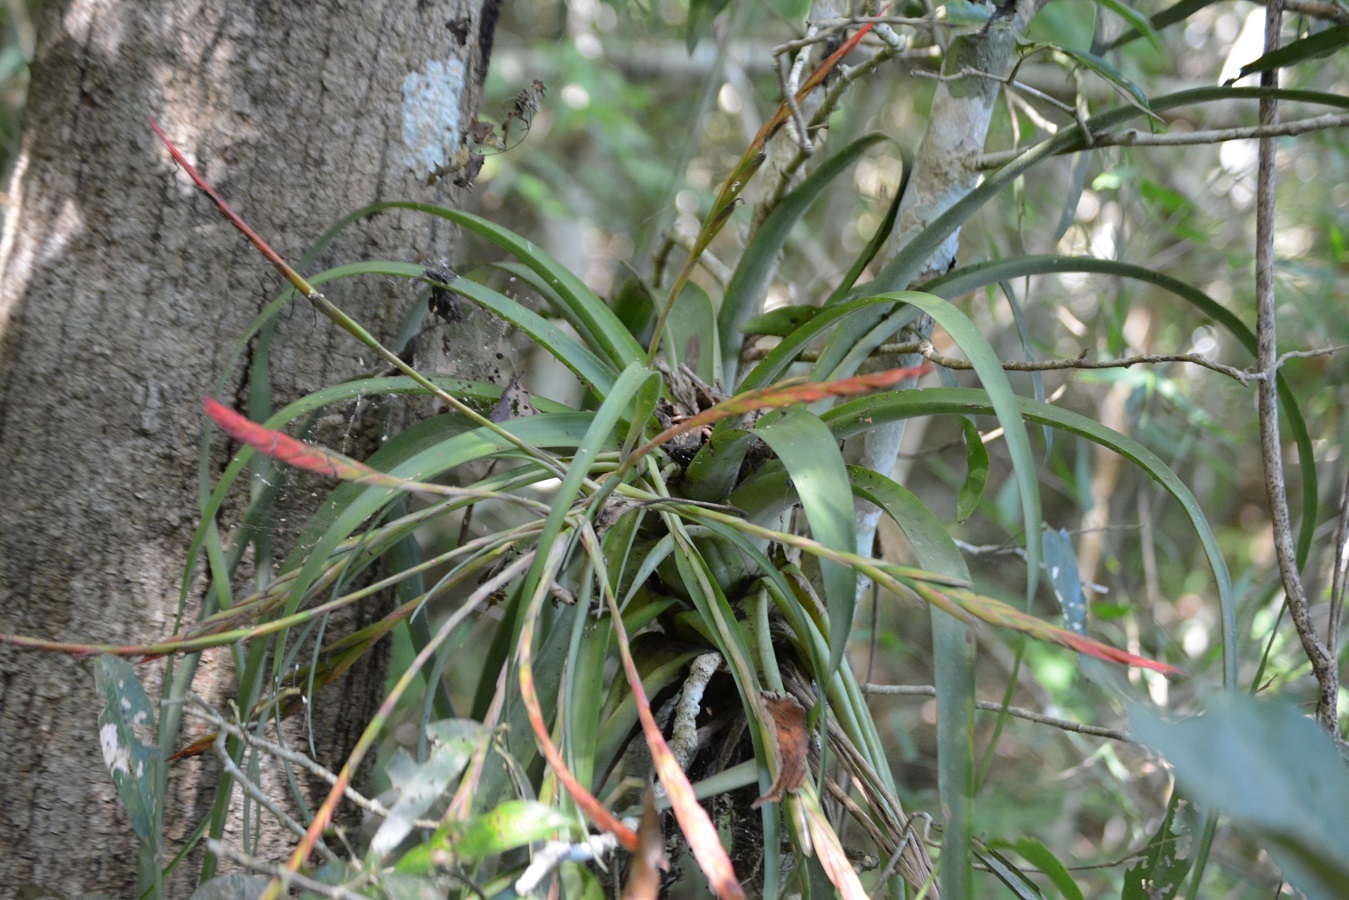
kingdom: Plantae
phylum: Tracheophyta
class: Liliopsida
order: Poales
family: Bromeliaceae
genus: Tillandsia
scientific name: Tillandsia flabellata
